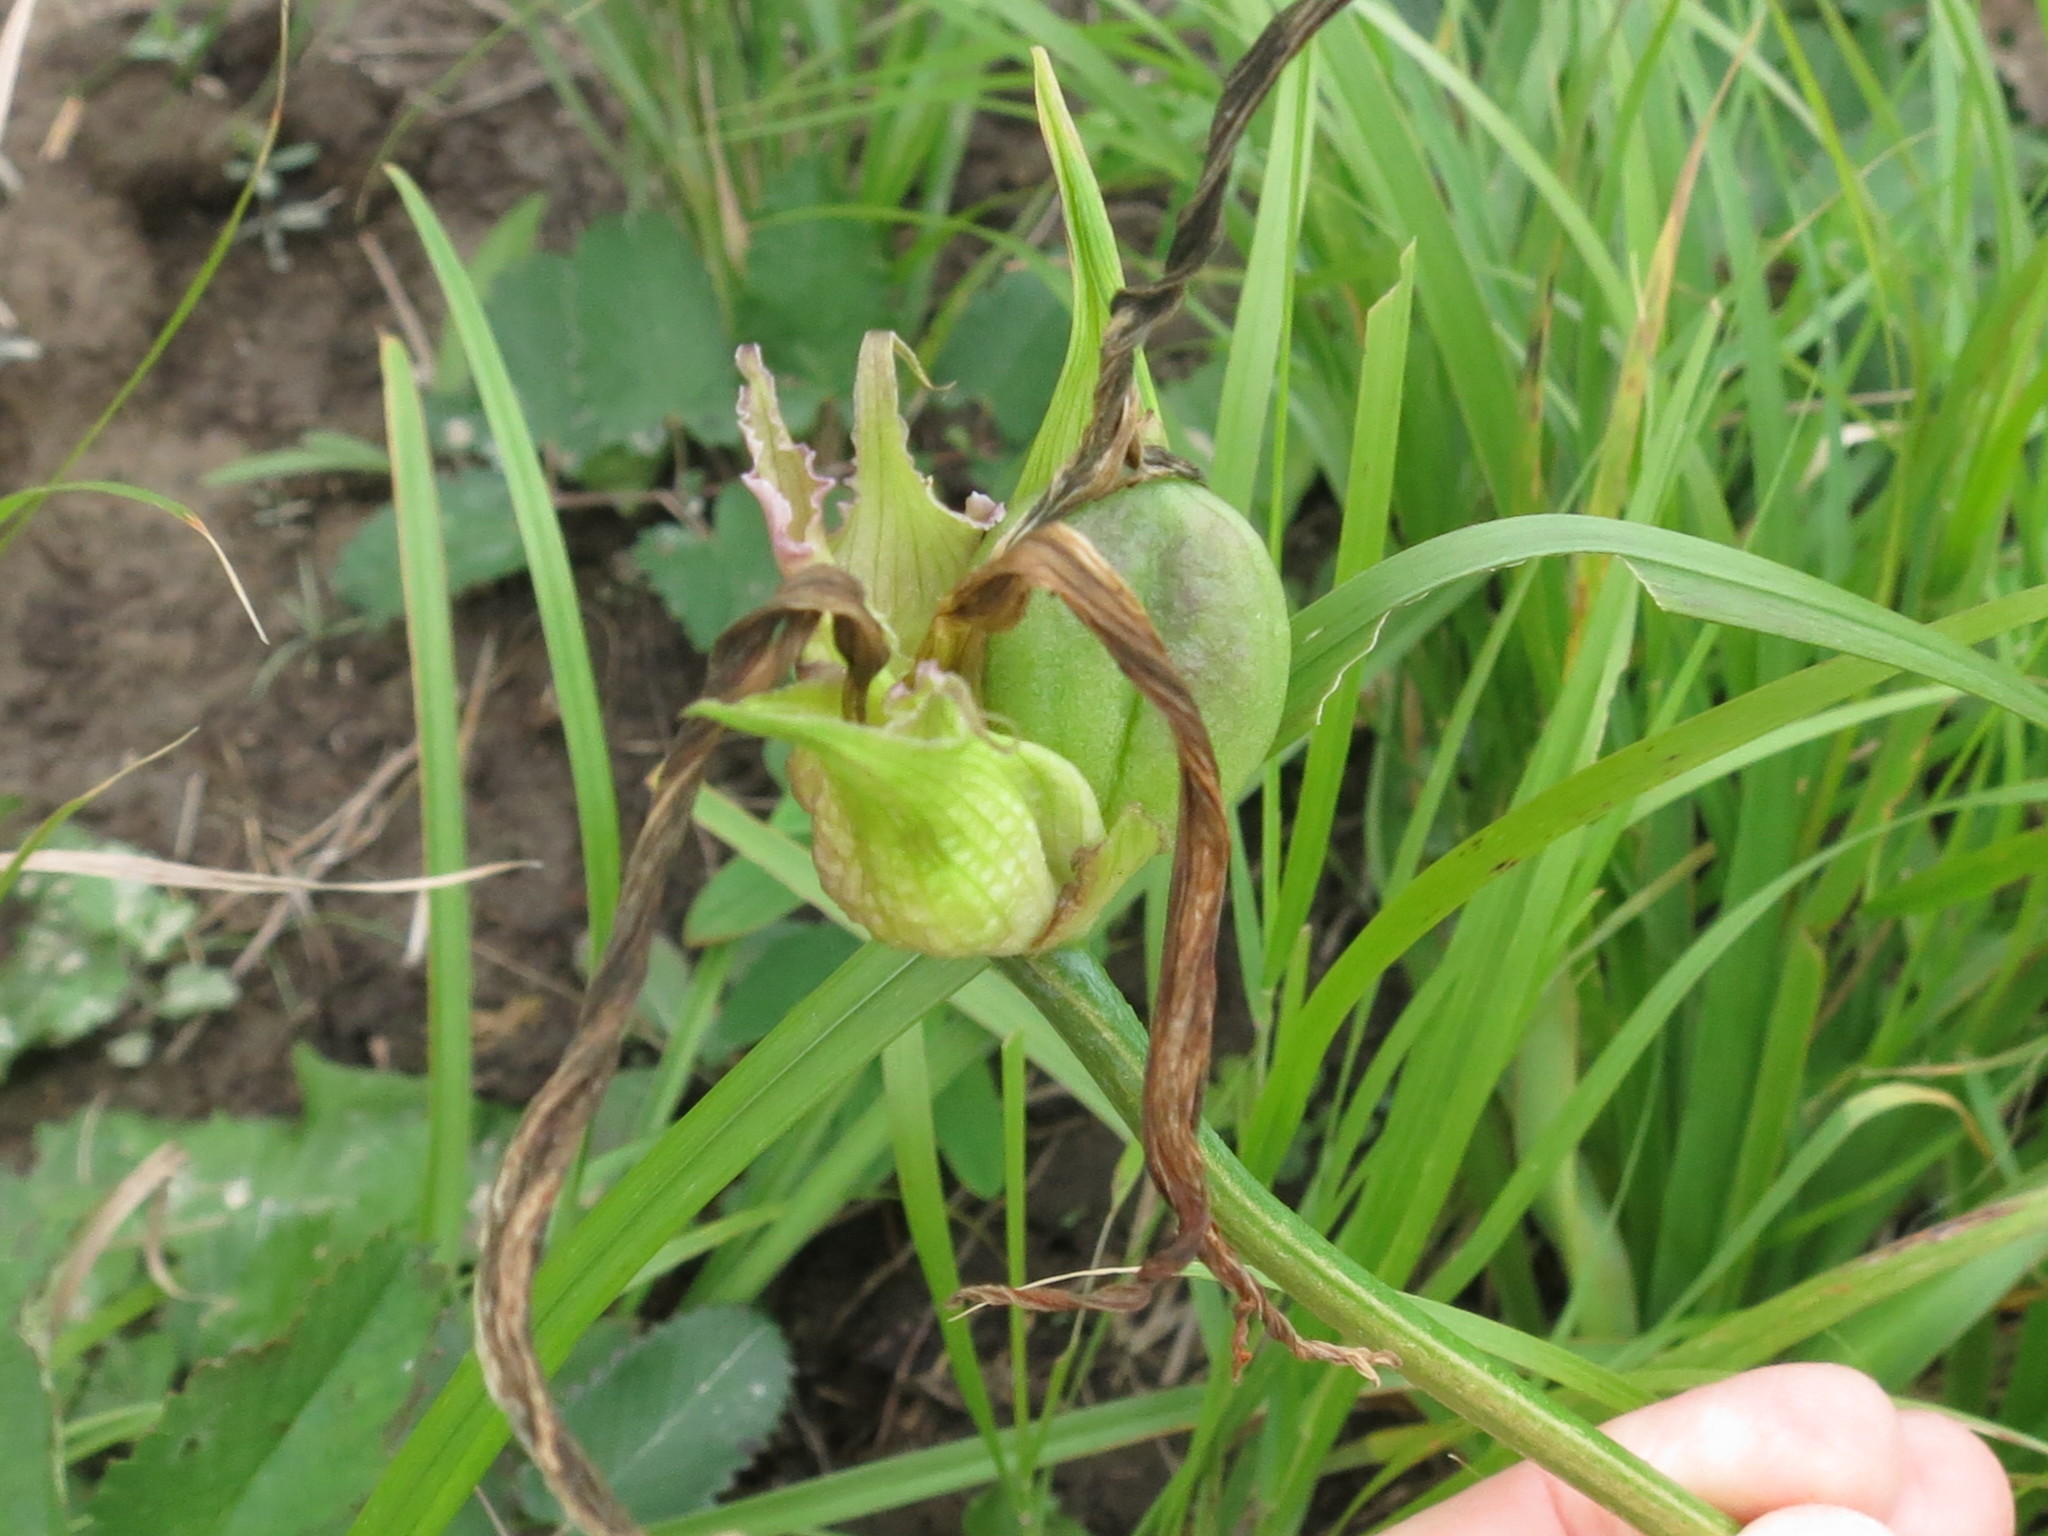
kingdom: Plantae
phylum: Tracheophyta
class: Liliopsida
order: Asparagales
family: Asphodelaceae
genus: Hemerocallis
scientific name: Hemerocallis minor
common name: Small daylily
